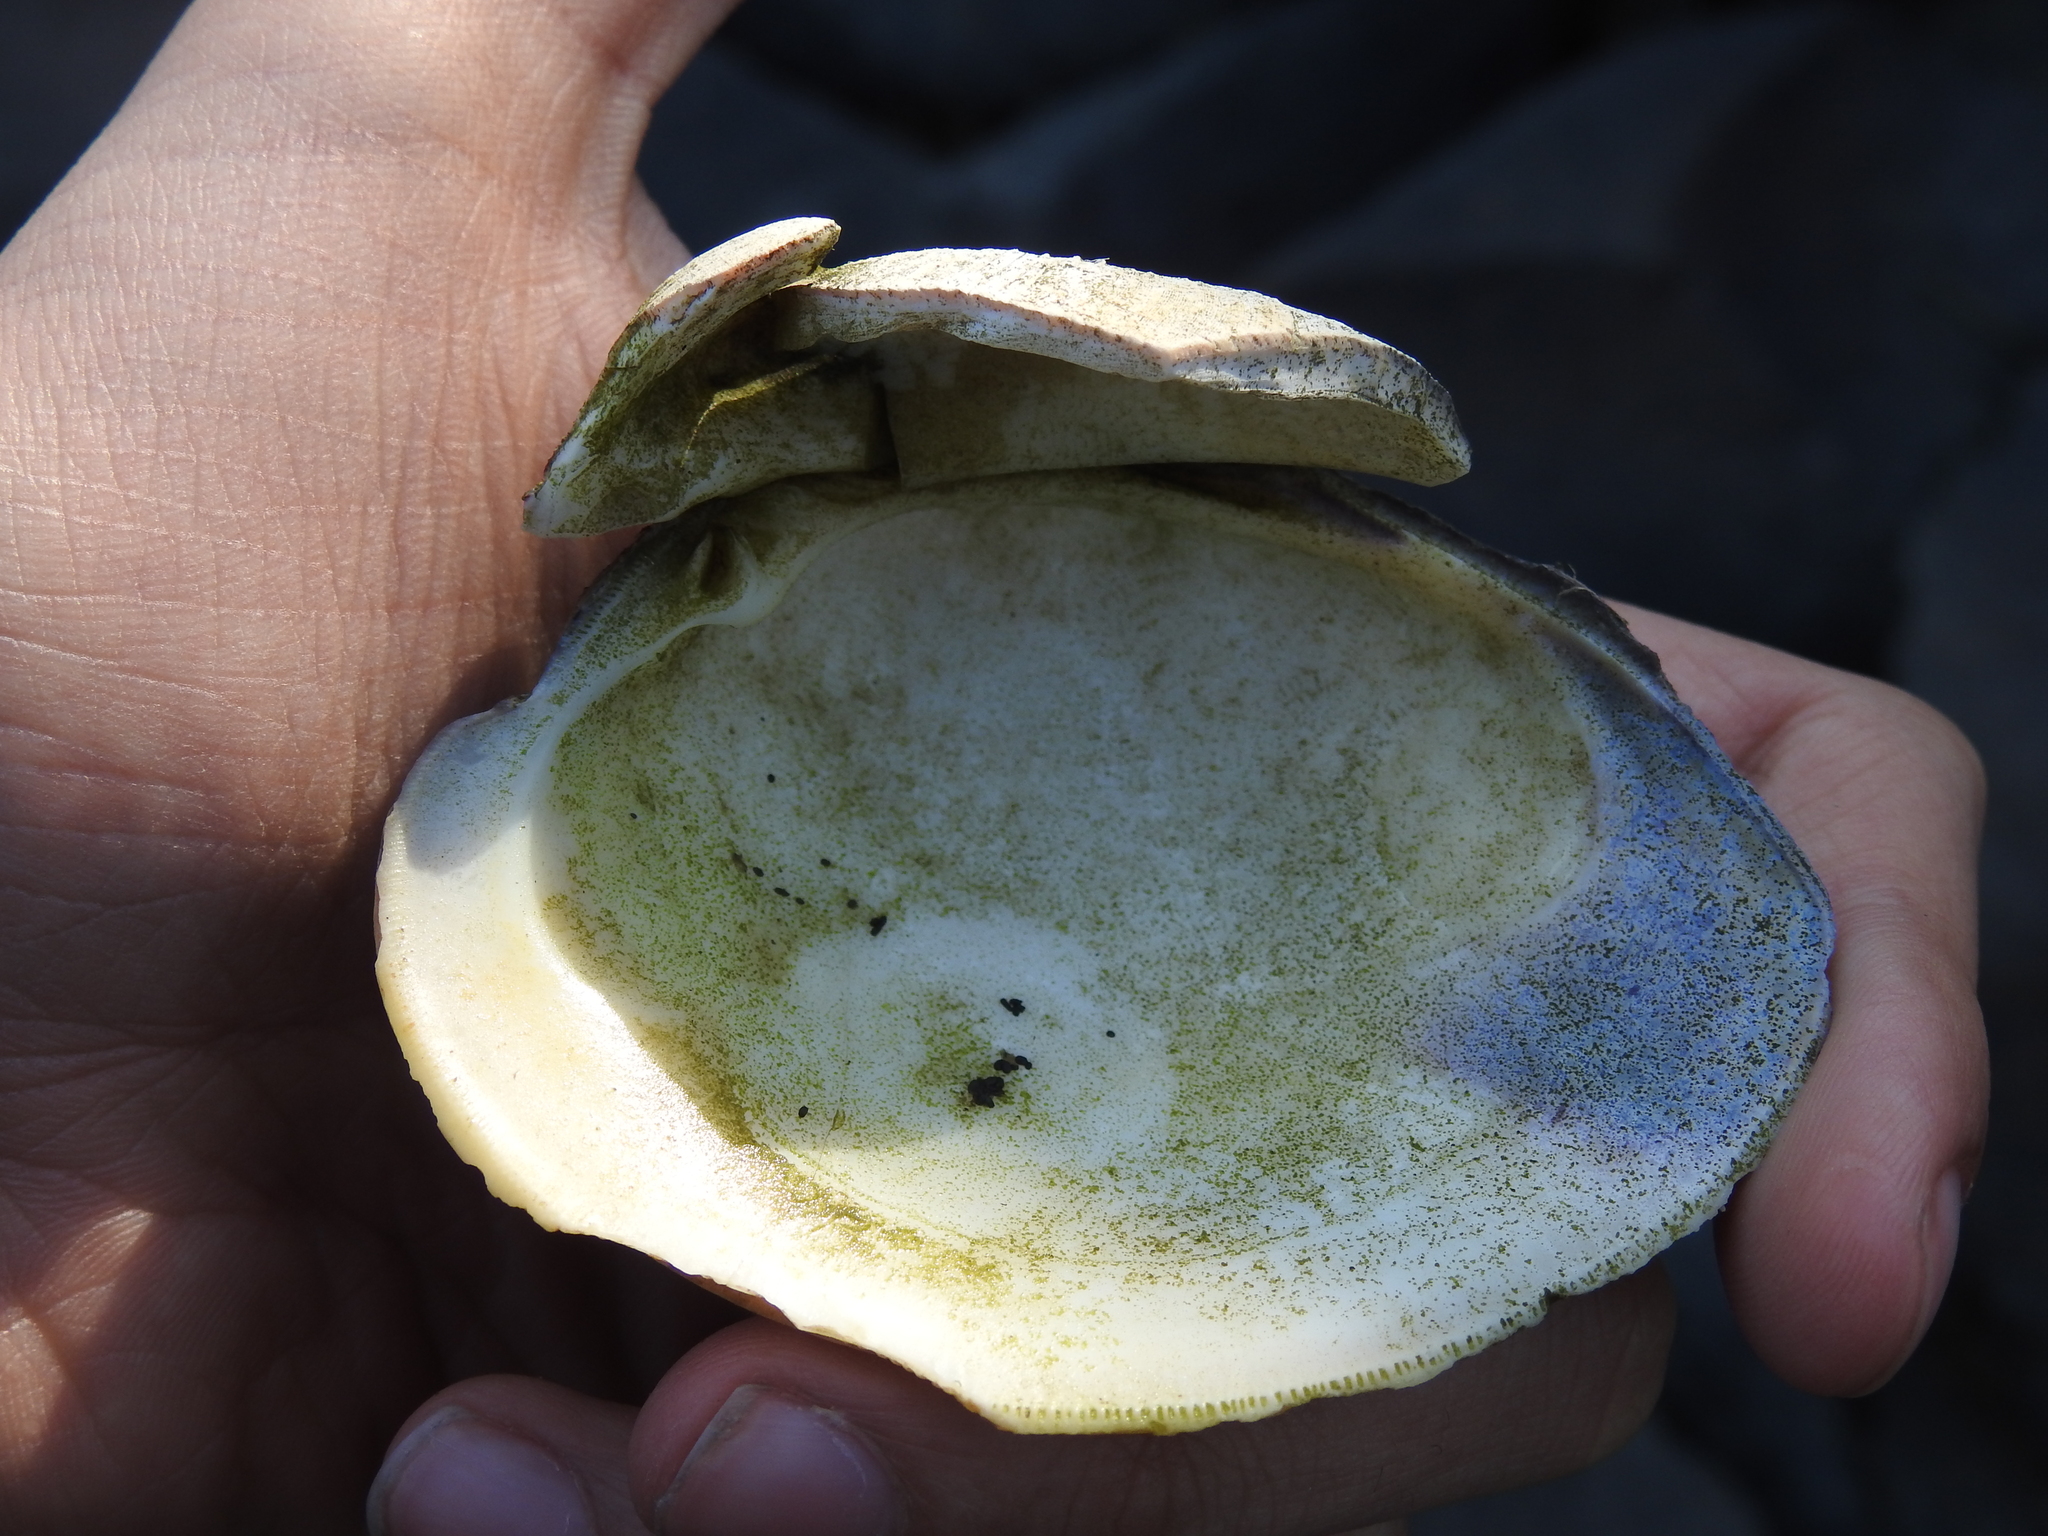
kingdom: Animalia
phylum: Mollusca
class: Bivalvia
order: Venerida
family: Veneridae
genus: Mercenaria
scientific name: Mercenaria mercenaria
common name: American hard-shelled clam
